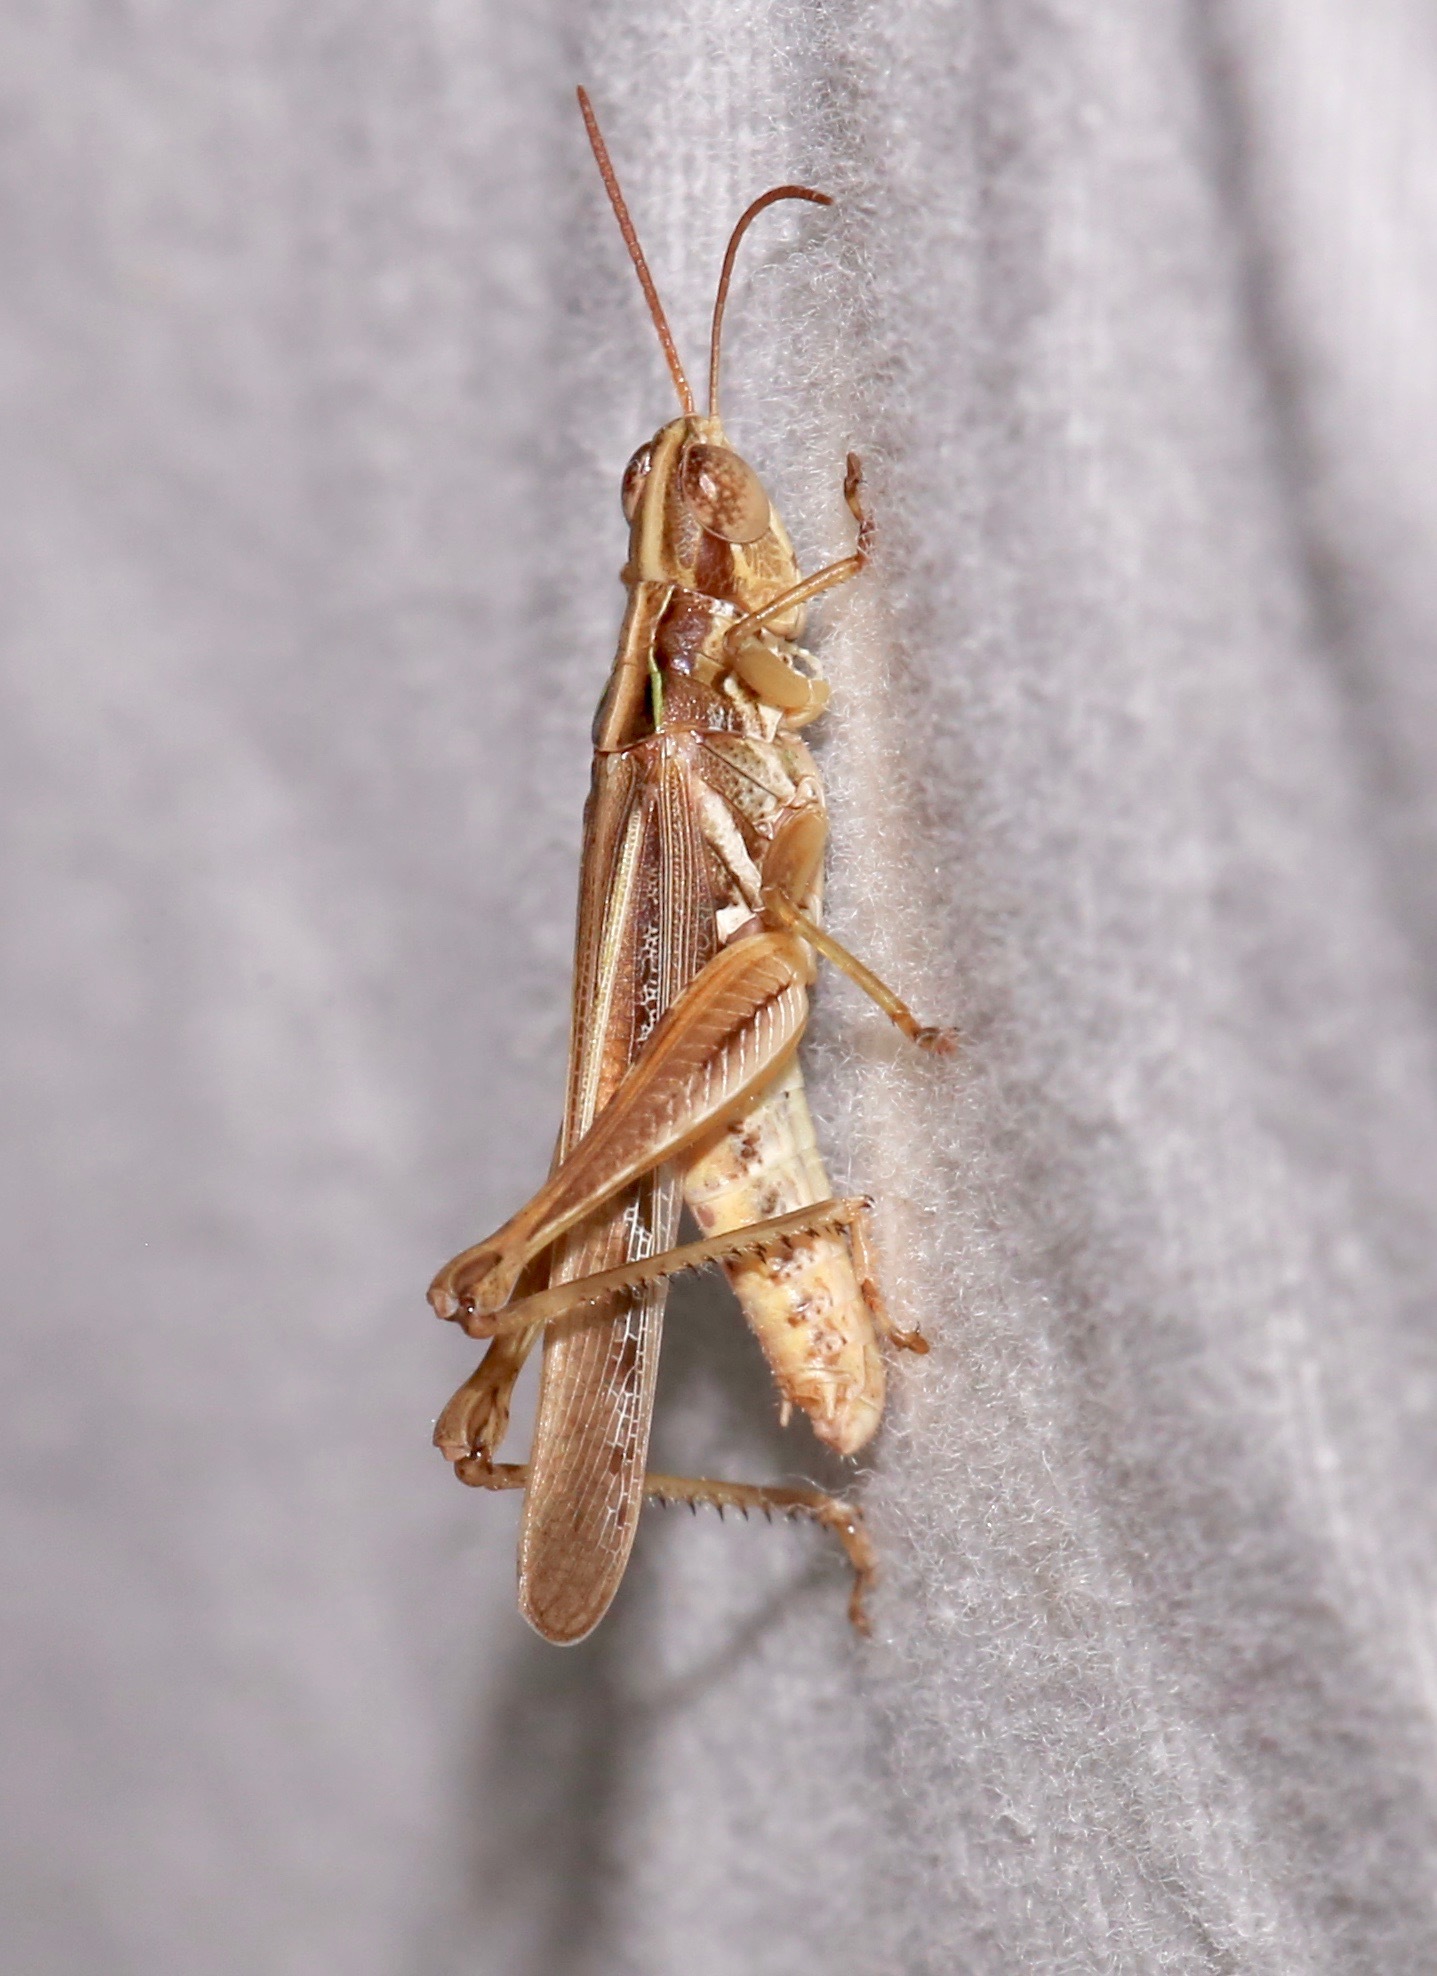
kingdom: Animalia
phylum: Arthropoda
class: Insecta
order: Orthoptera
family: Acrididae
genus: Orphulella
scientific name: Orphulella pelidna
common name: Spotted-wing grasshopper
